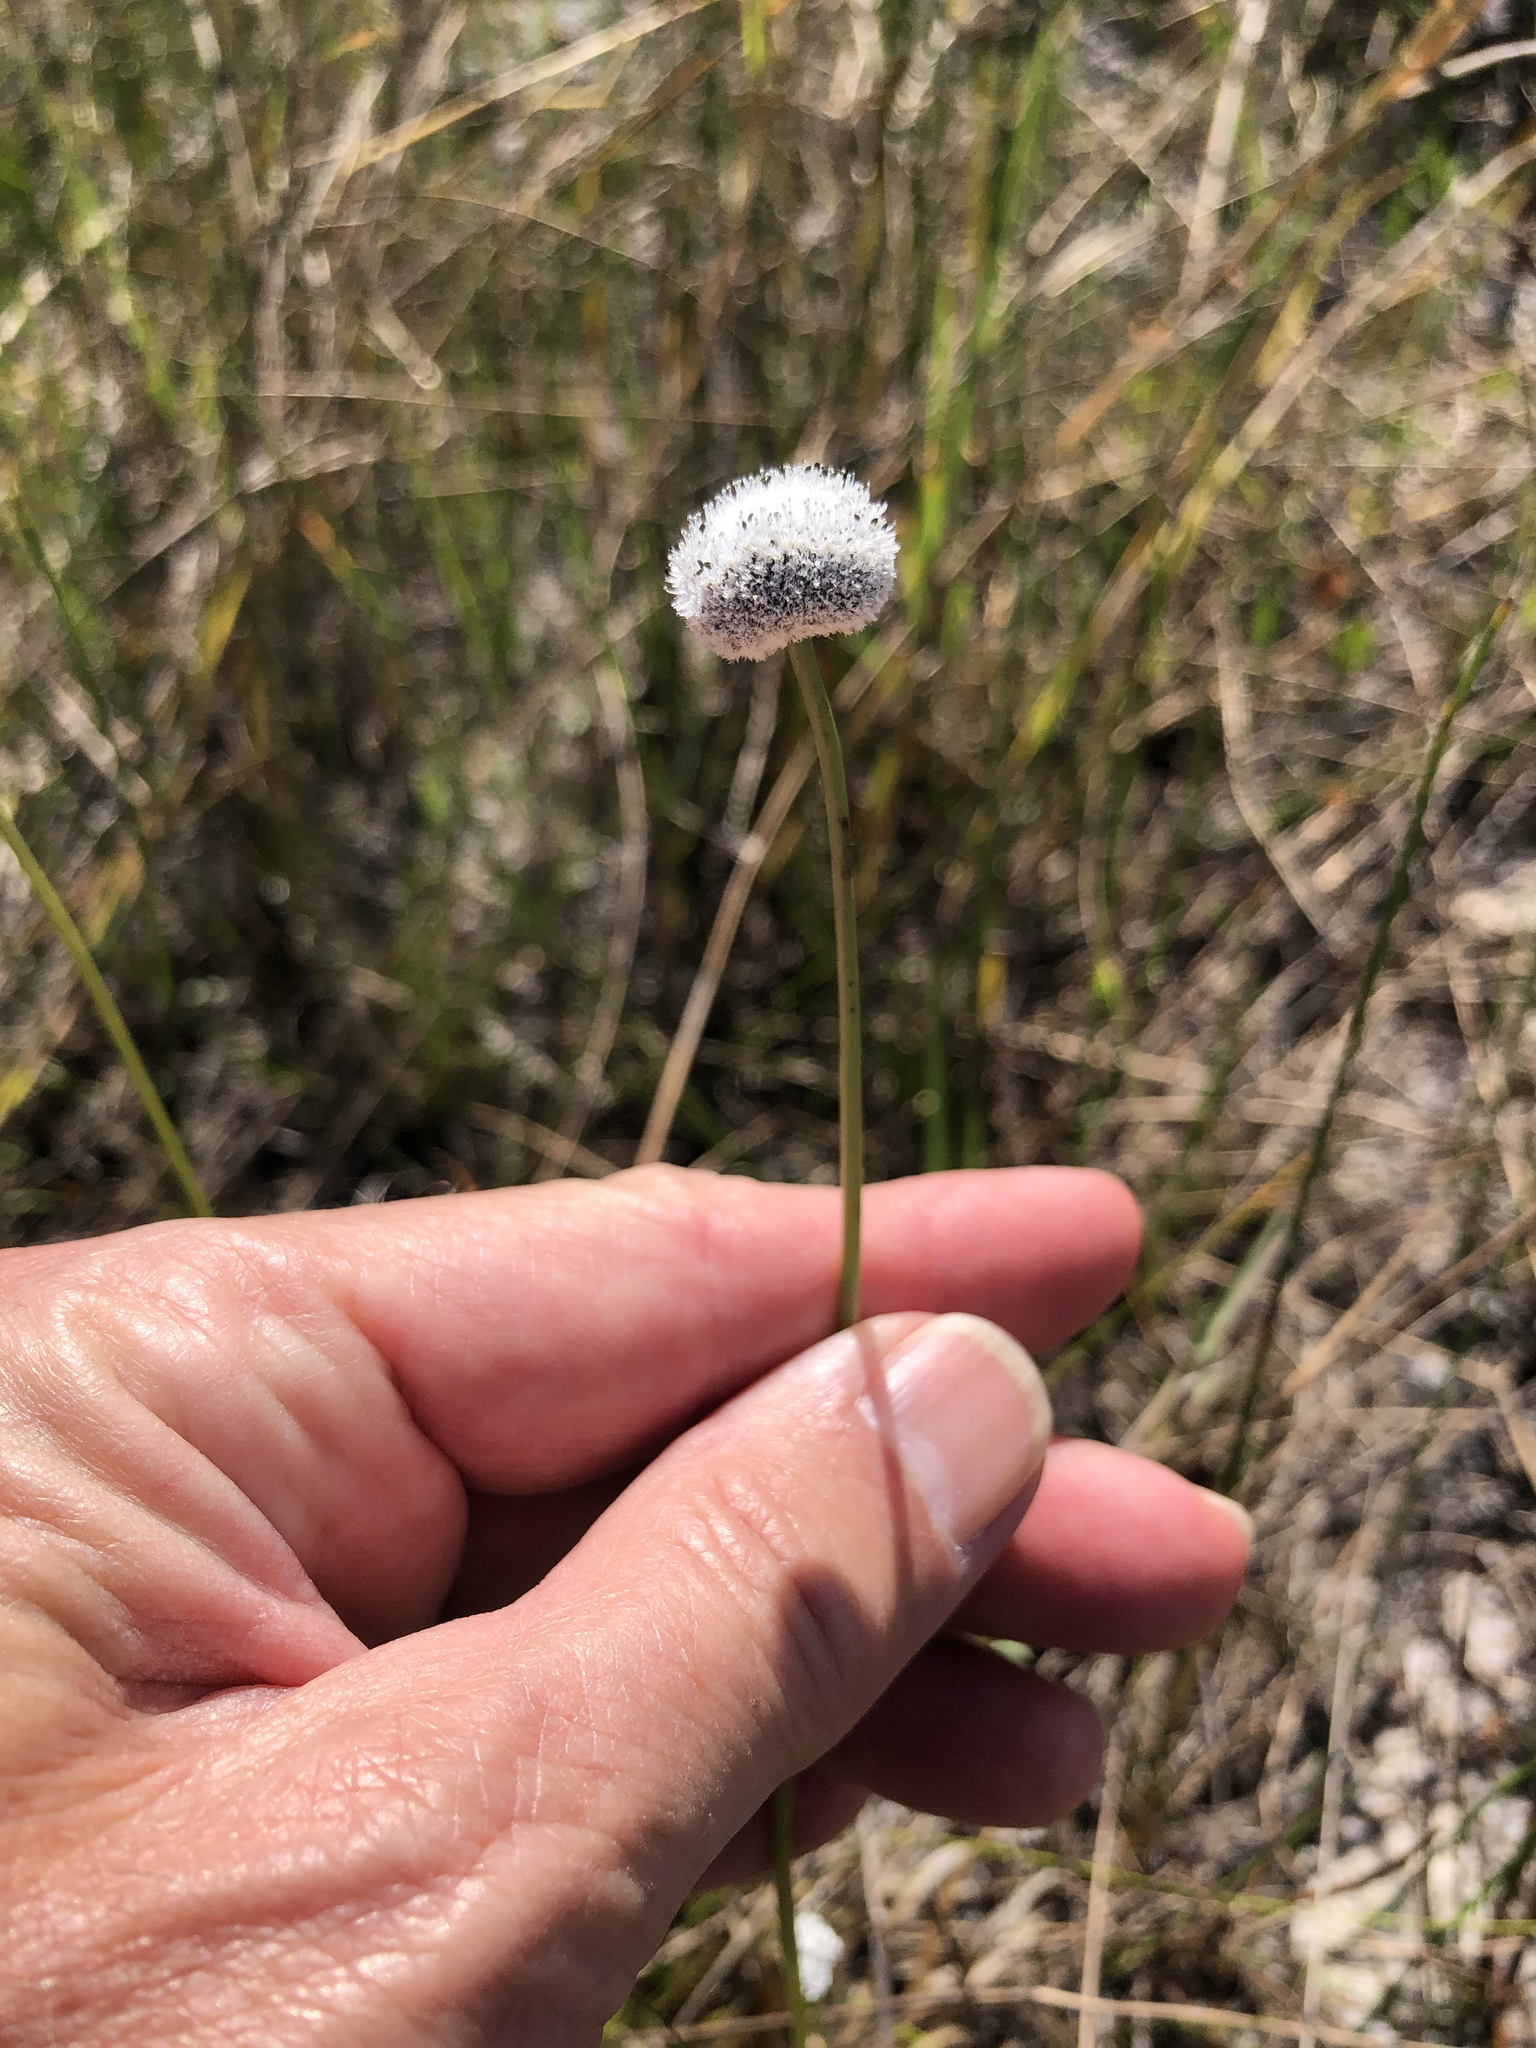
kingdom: Plantae
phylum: Tracheophyta
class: Liliopsida
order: Poales
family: Eriocaulaceae
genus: Eriocaulon
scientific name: Eriocaulon compressum
